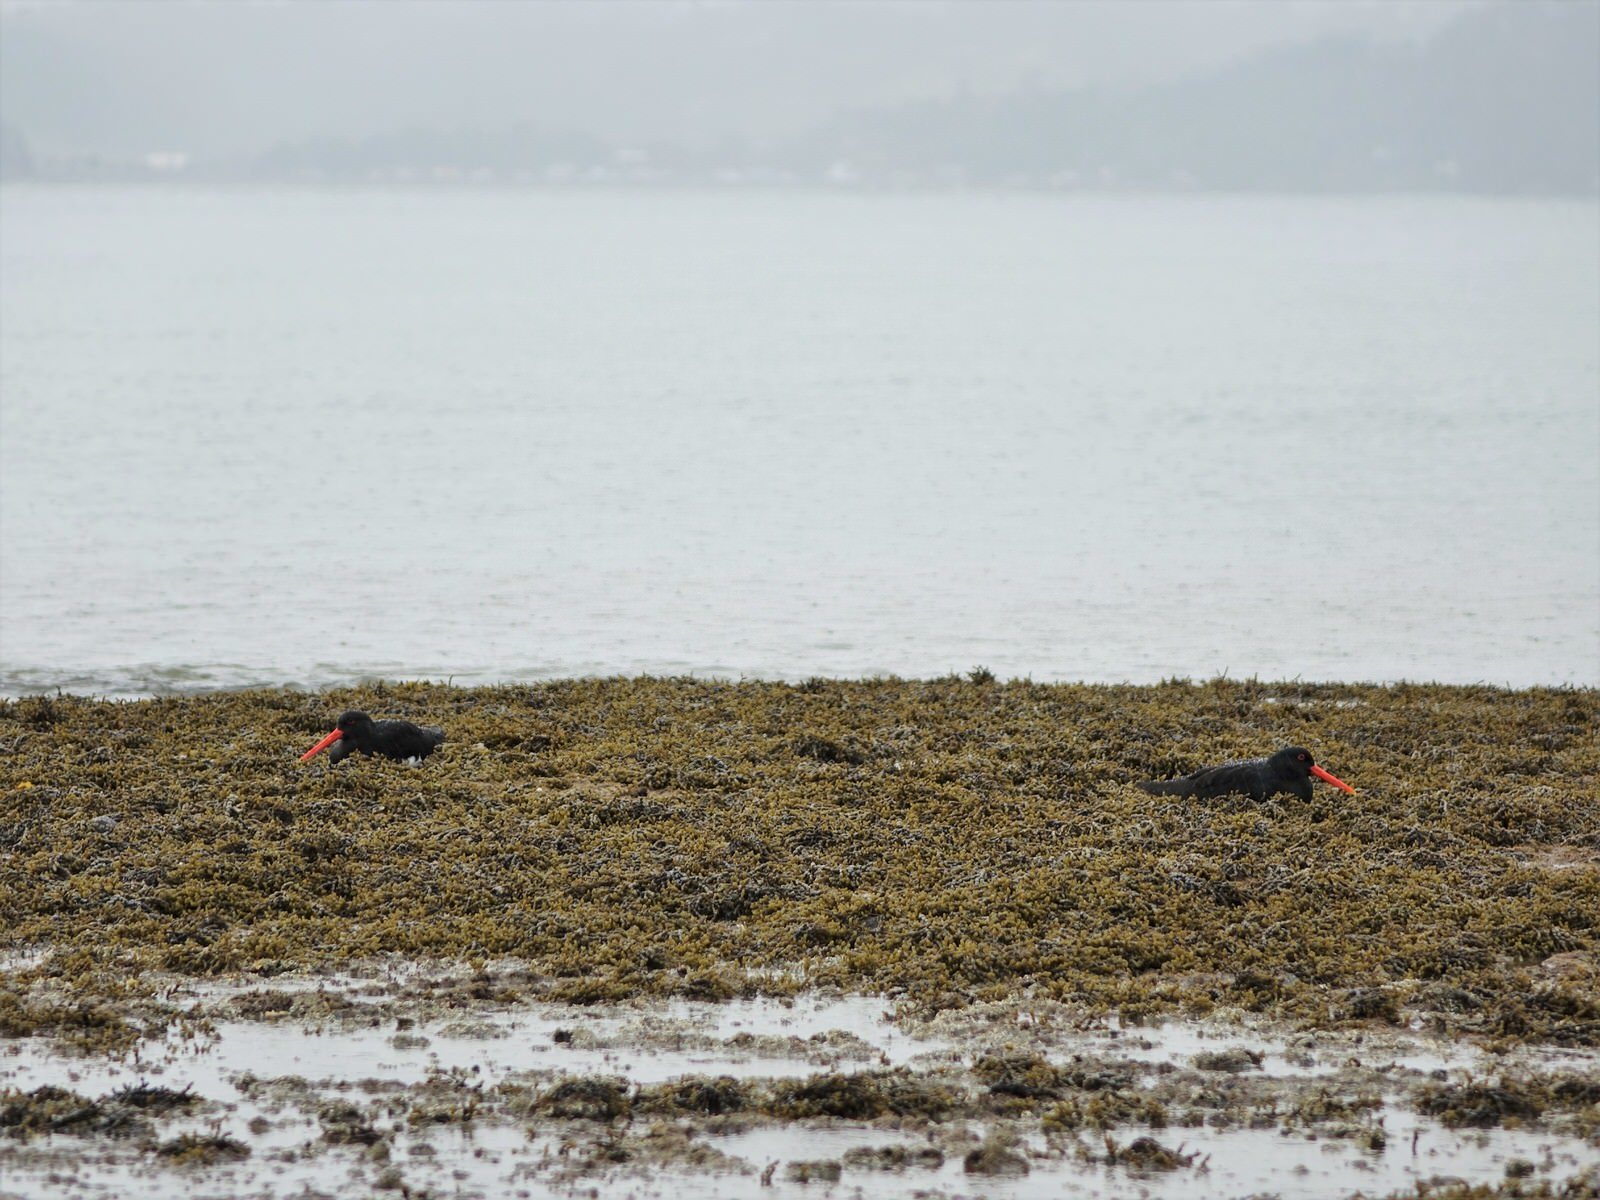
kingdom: Animalia
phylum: Chordata
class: Aves
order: Charadriiformes
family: Haematopodidae
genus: Haematopus
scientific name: Haematopus unicolor
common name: Variable oystercatcher
